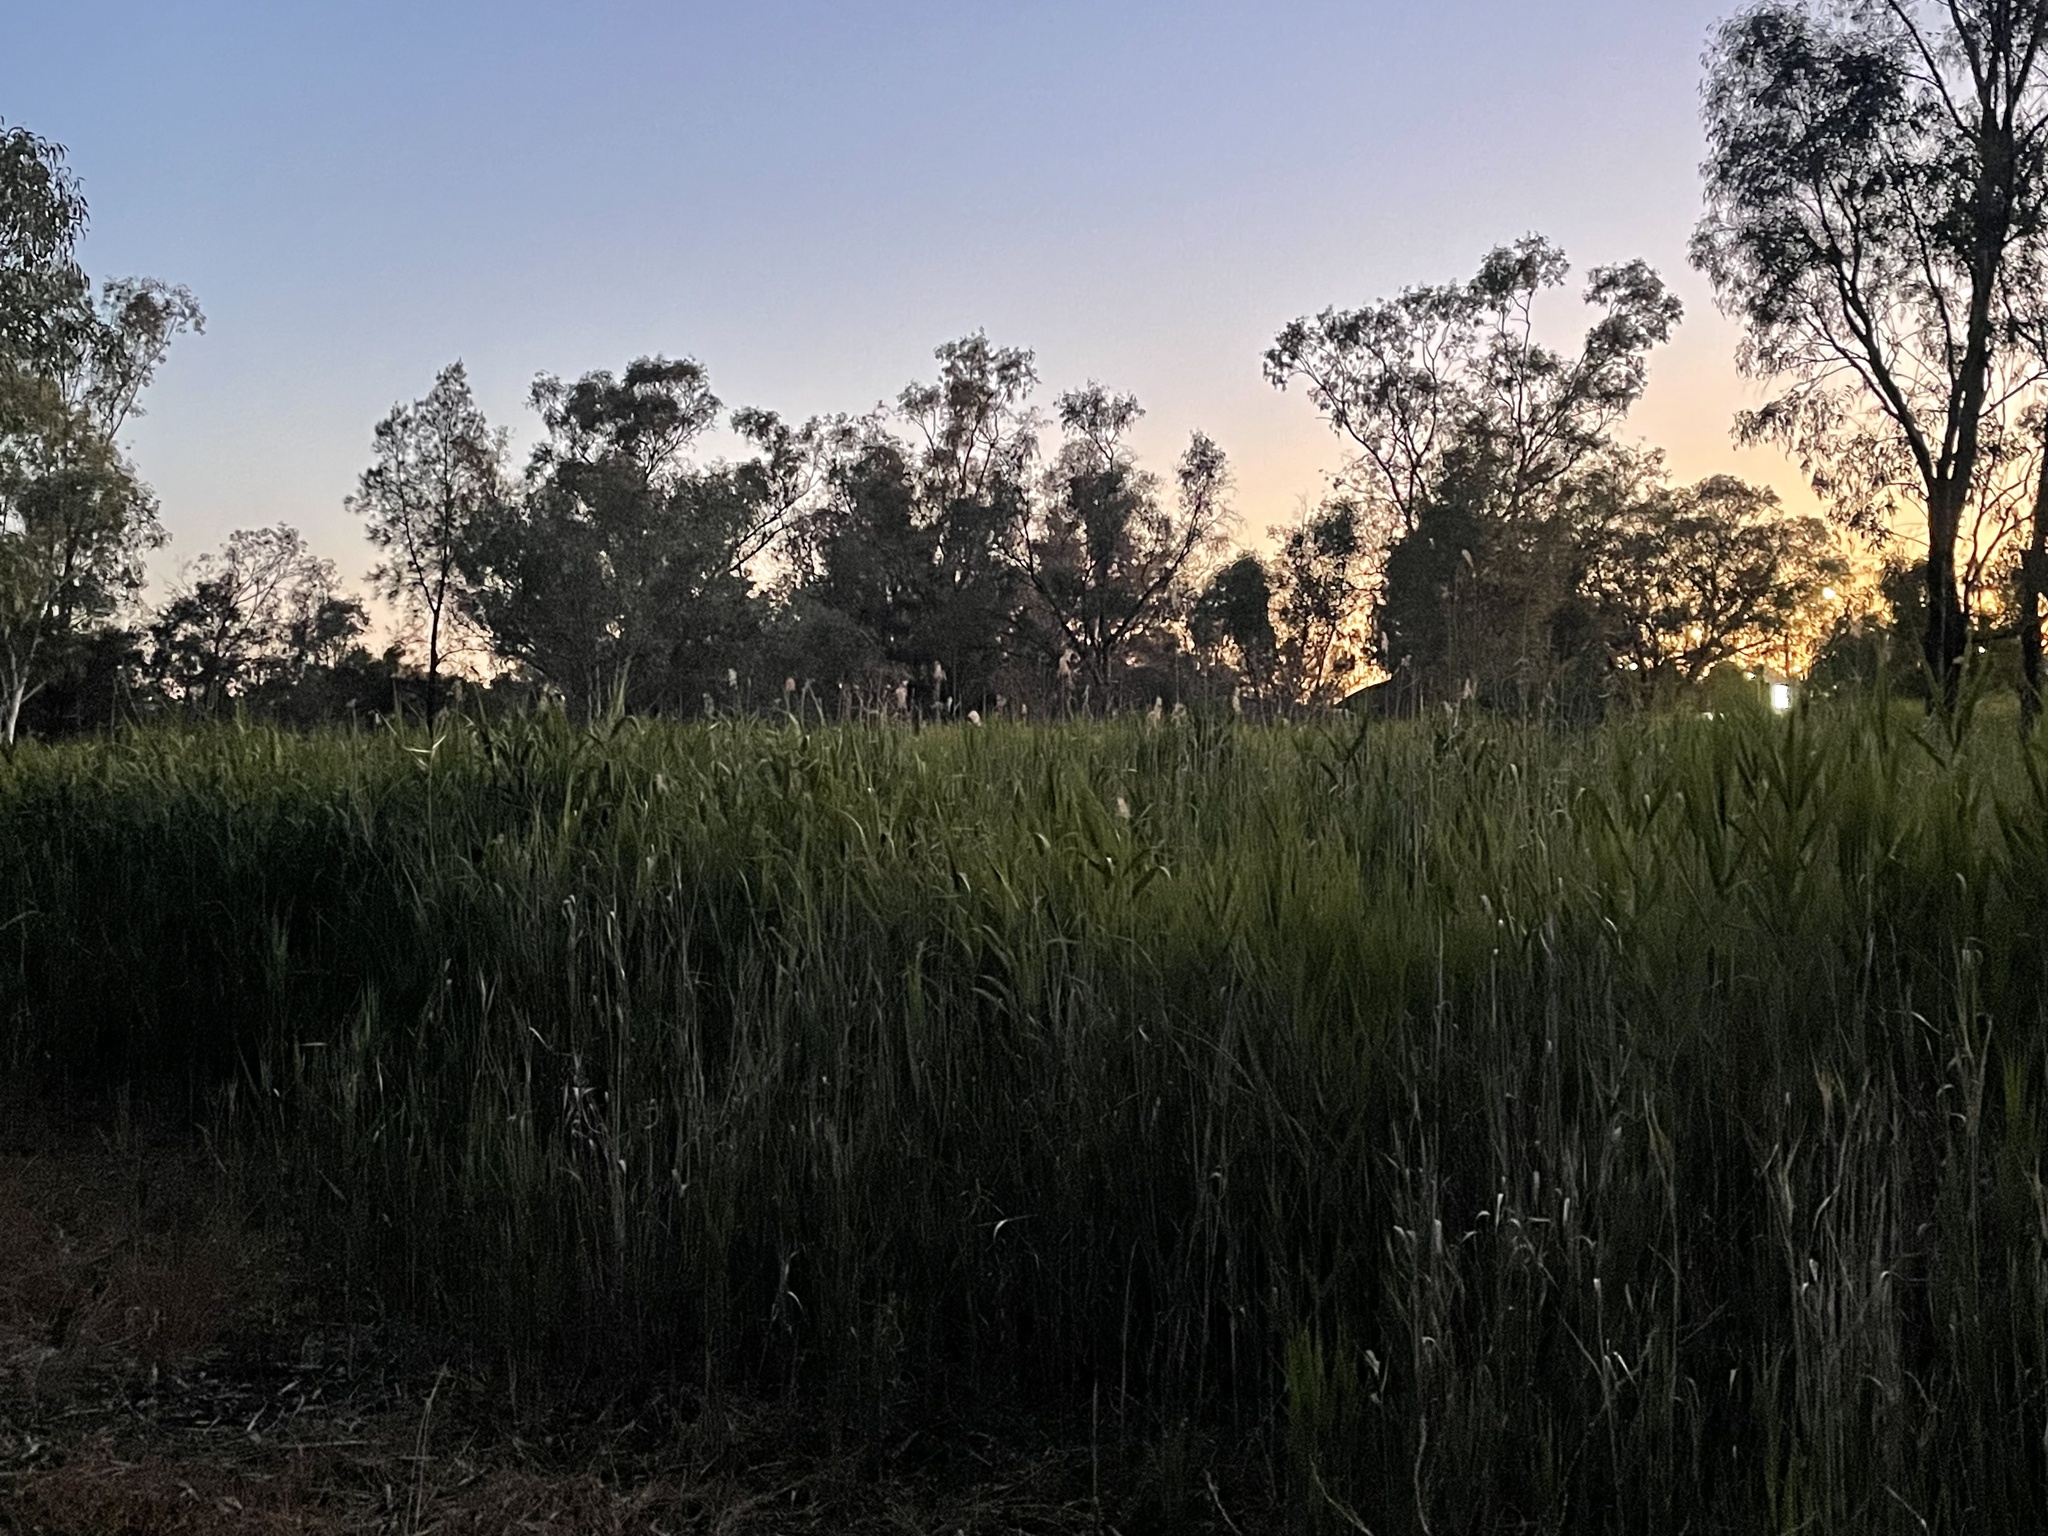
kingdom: Plantae
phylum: Tracheophyta
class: Liliopsida
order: Poales
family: Poaceae
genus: Phragmites
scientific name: Phragmites australis
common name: Common reed
